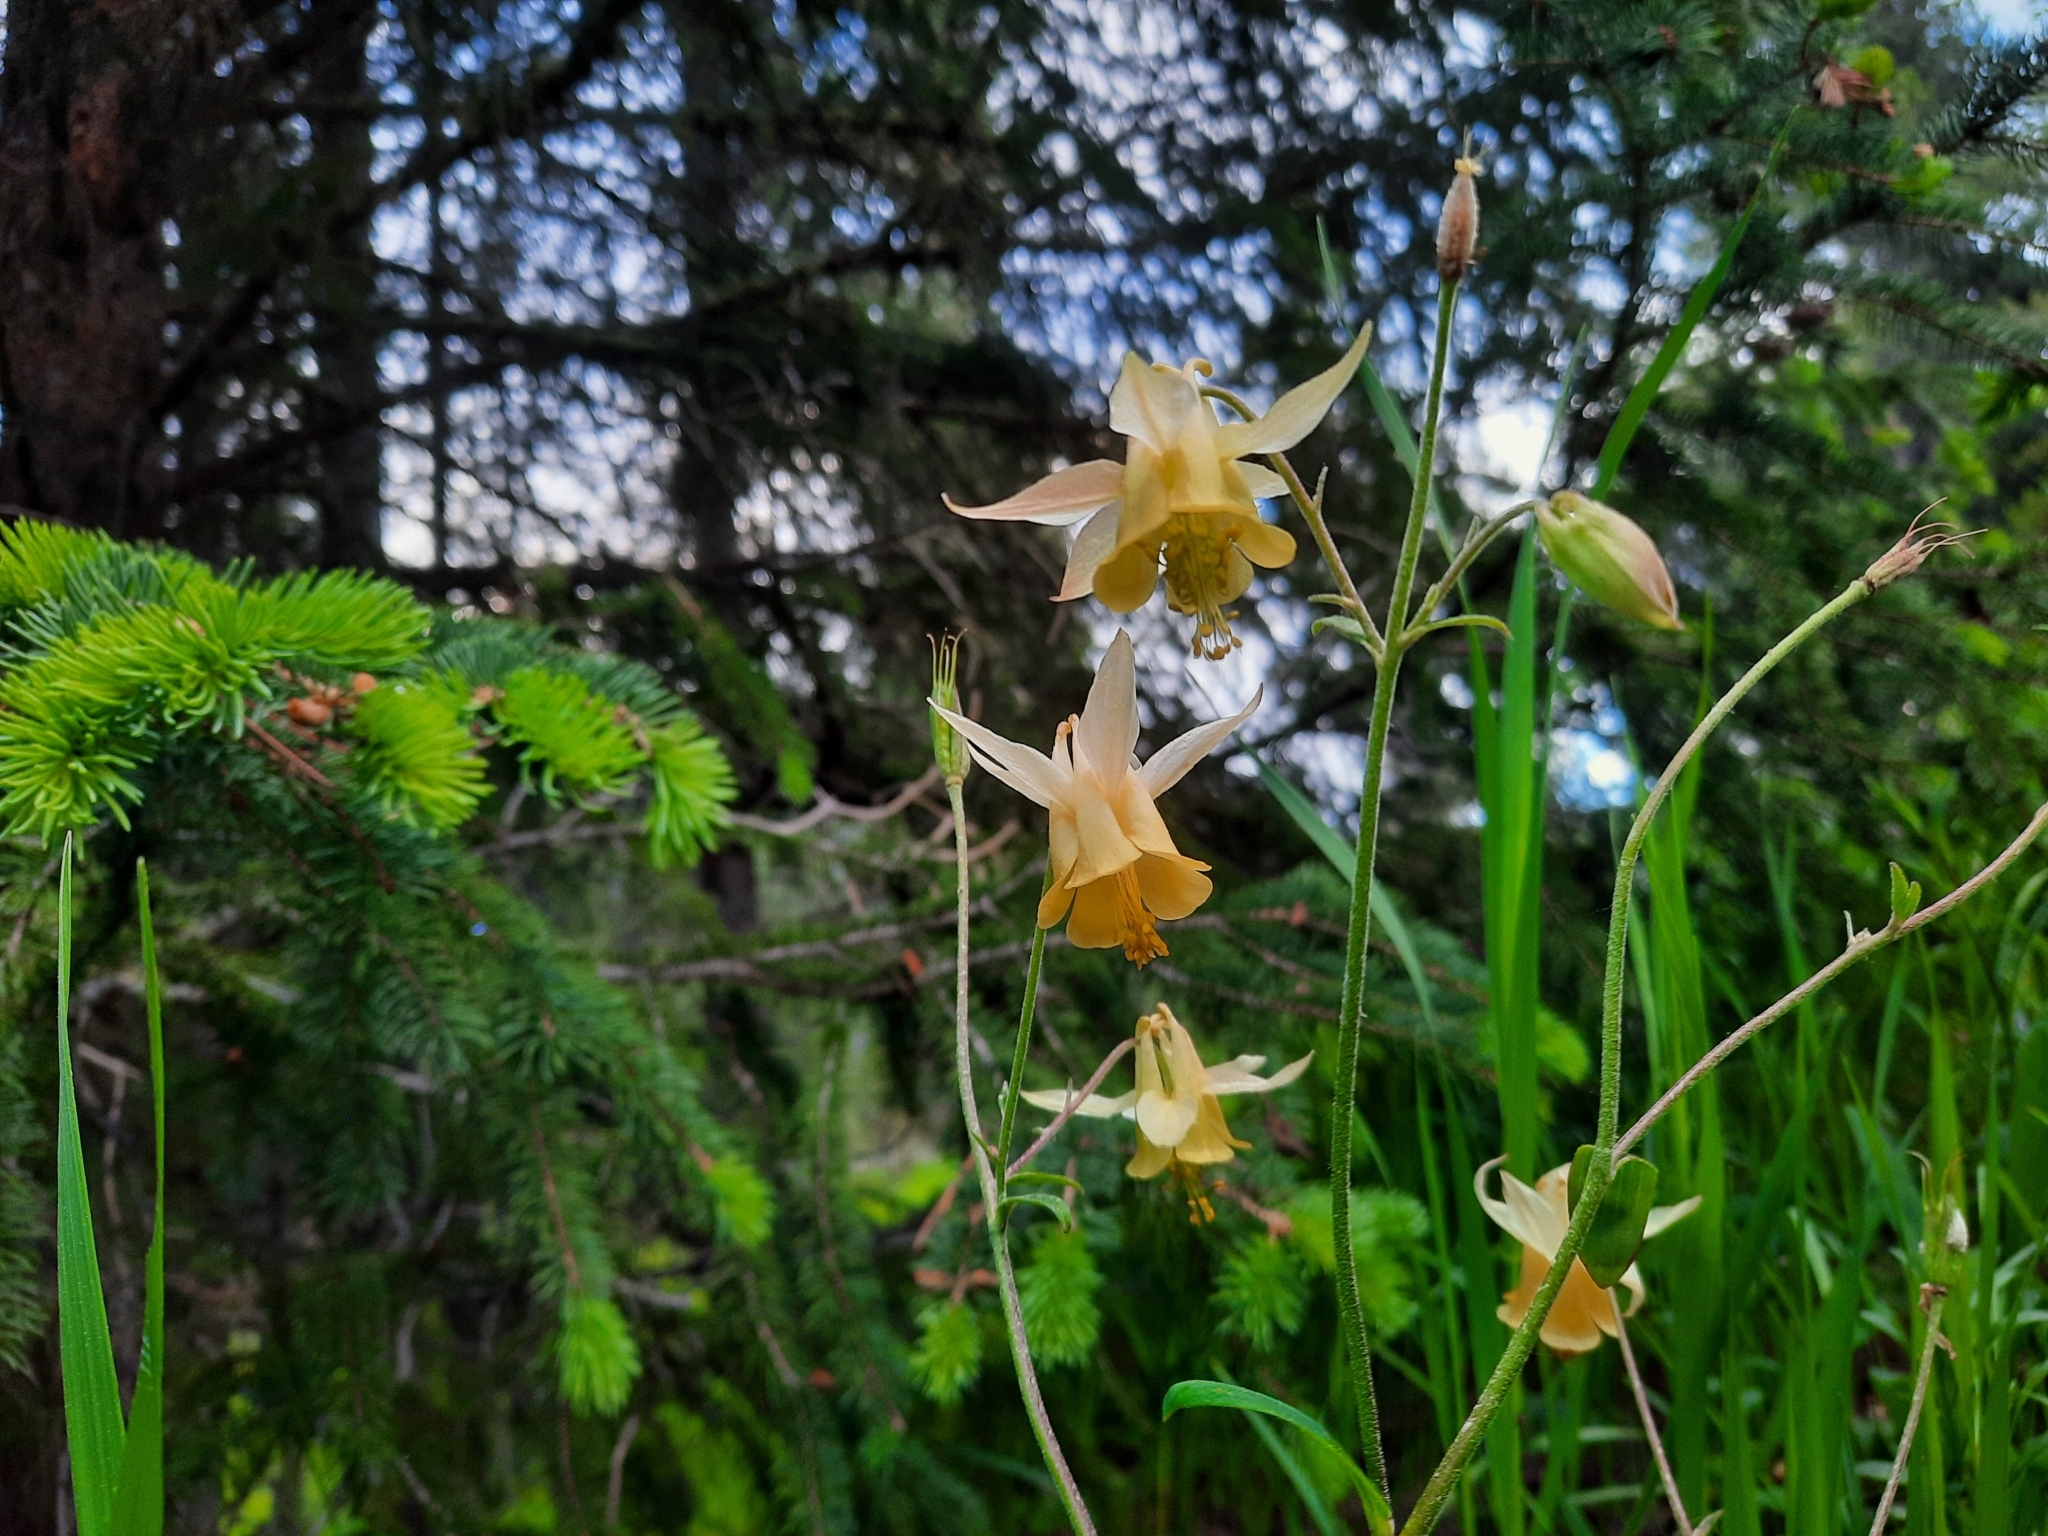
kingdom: Plantae
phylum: Tracheophyta
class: Magnoliopsida
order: Ranunculales
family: Ranunculaceae
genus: Aquilegia
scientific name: Aquilegia flavescens
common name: Yellow columbine
